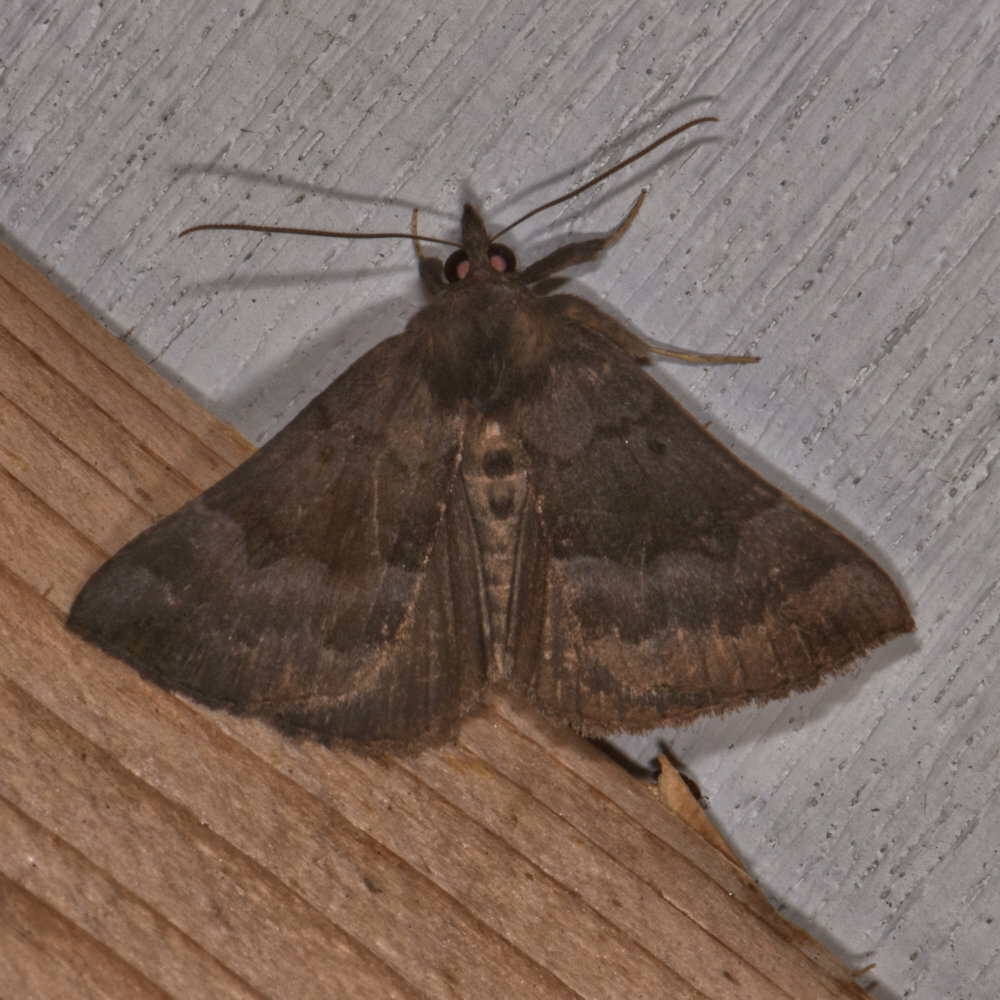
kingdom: Animalia
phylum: Arthropoda
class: Insecta
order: Lepidoptera
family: Erebidae
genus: Hypena
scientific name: Hypena madefactalis
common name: Gray-edged snout
